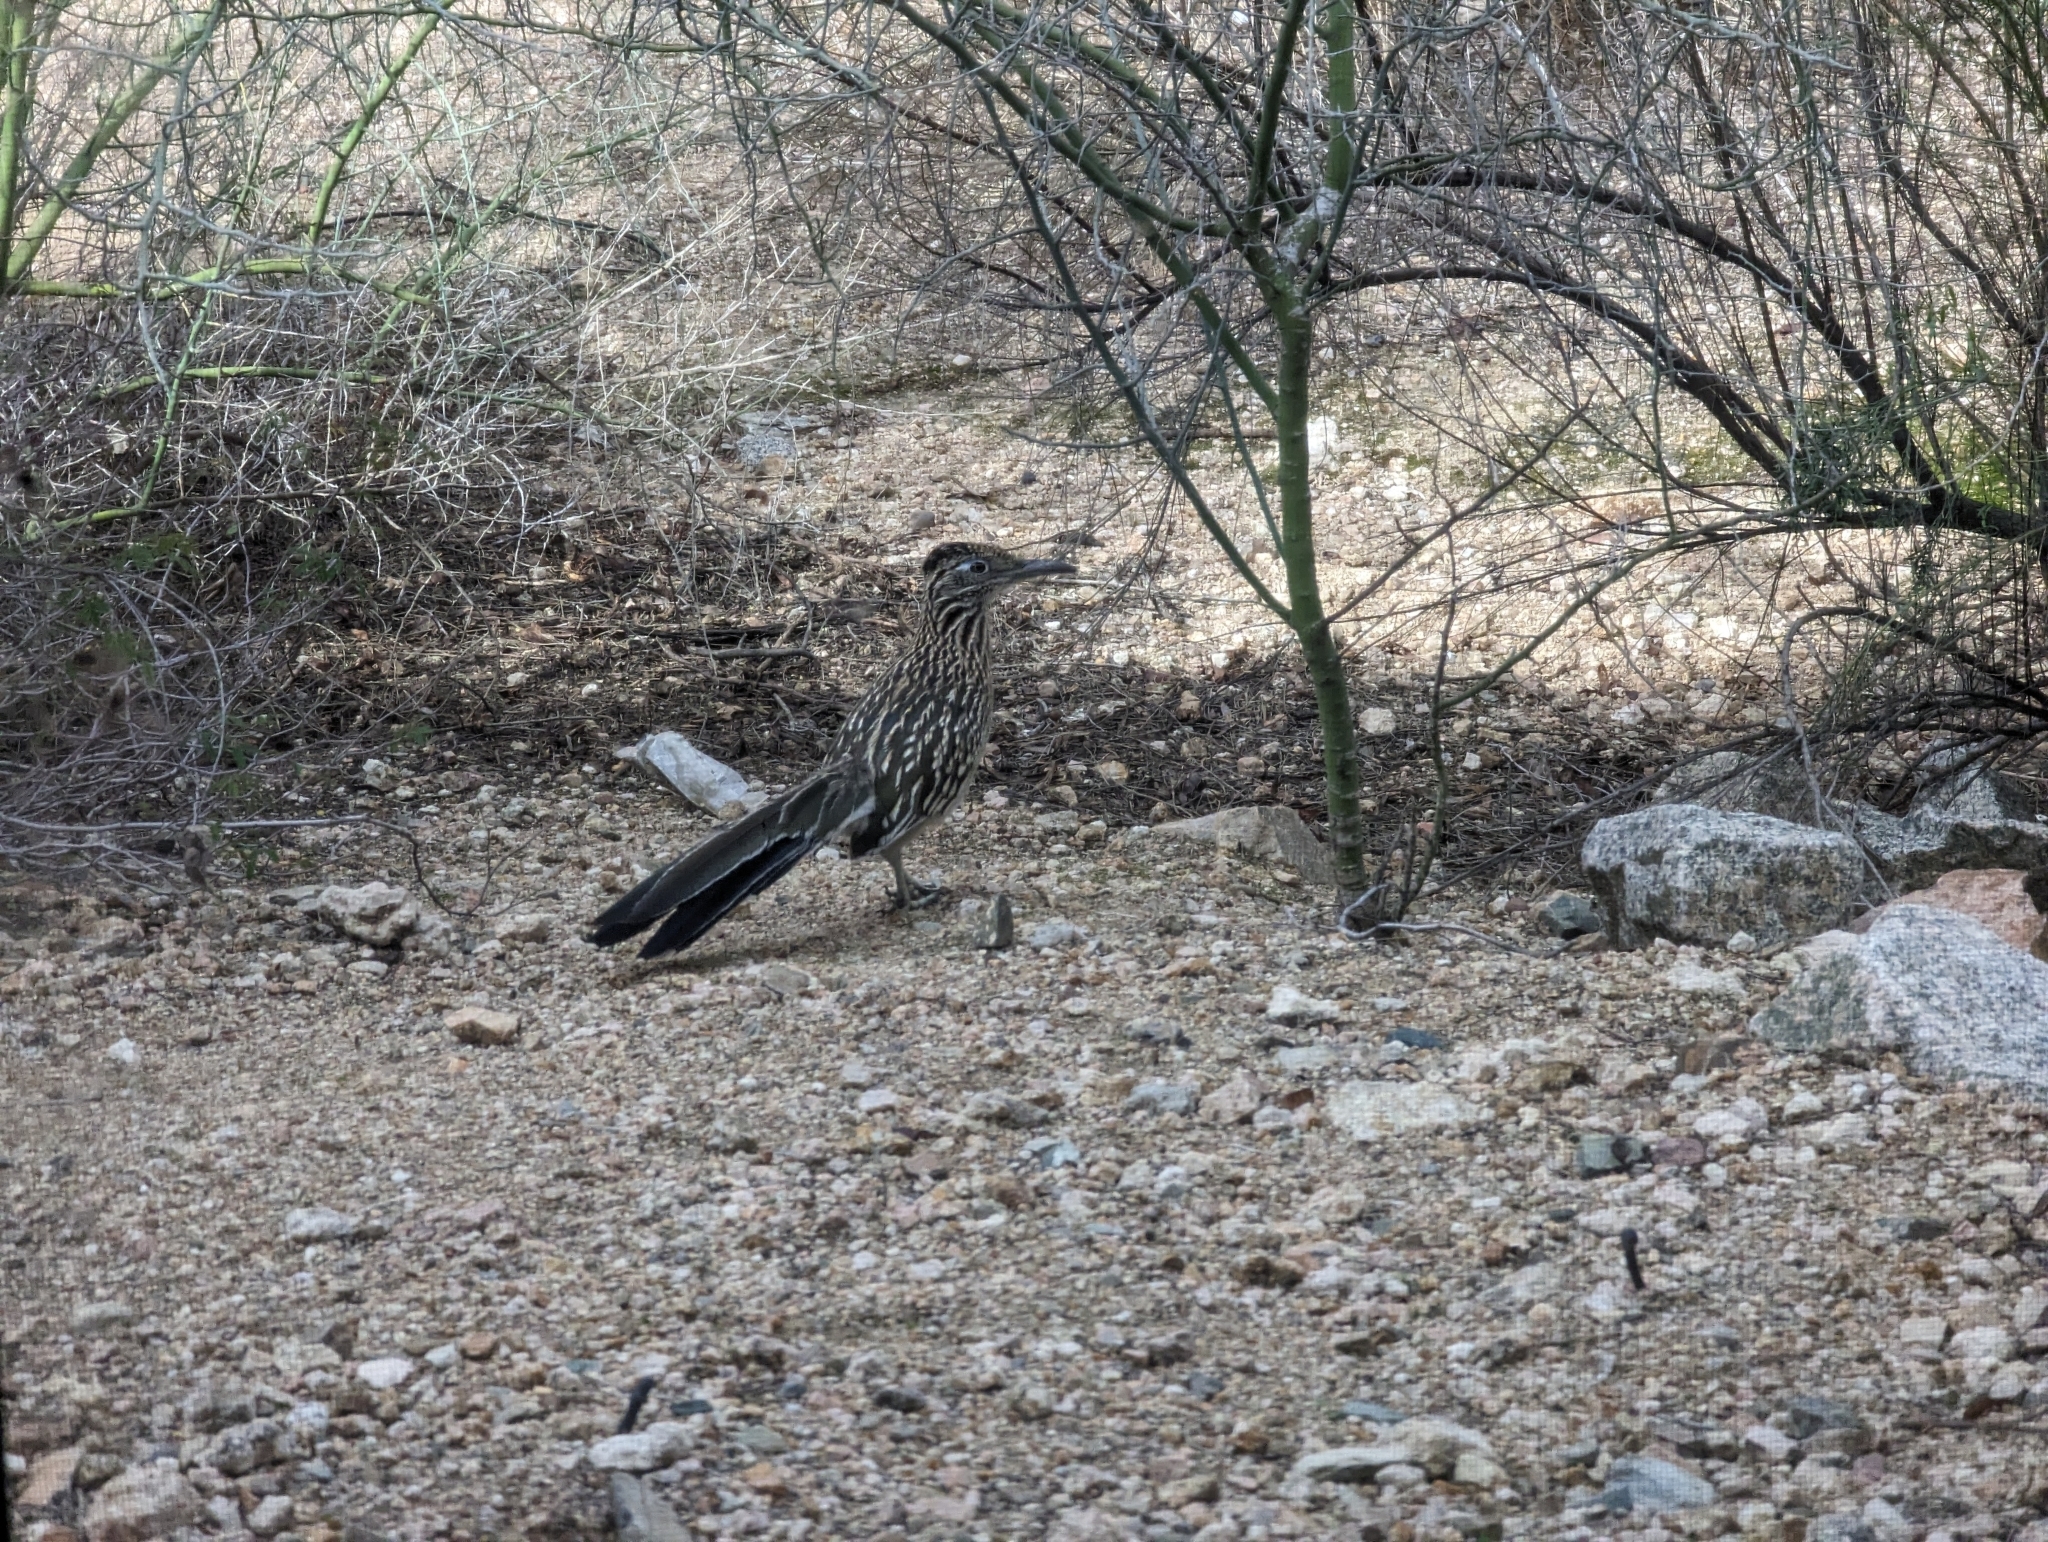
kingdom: Animalia
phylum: Chordata
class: Aves
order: Cuculiformes
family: Cuculidae
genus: Geococcyx
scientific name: Geococcyx californianus
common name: Greater roadrunner
